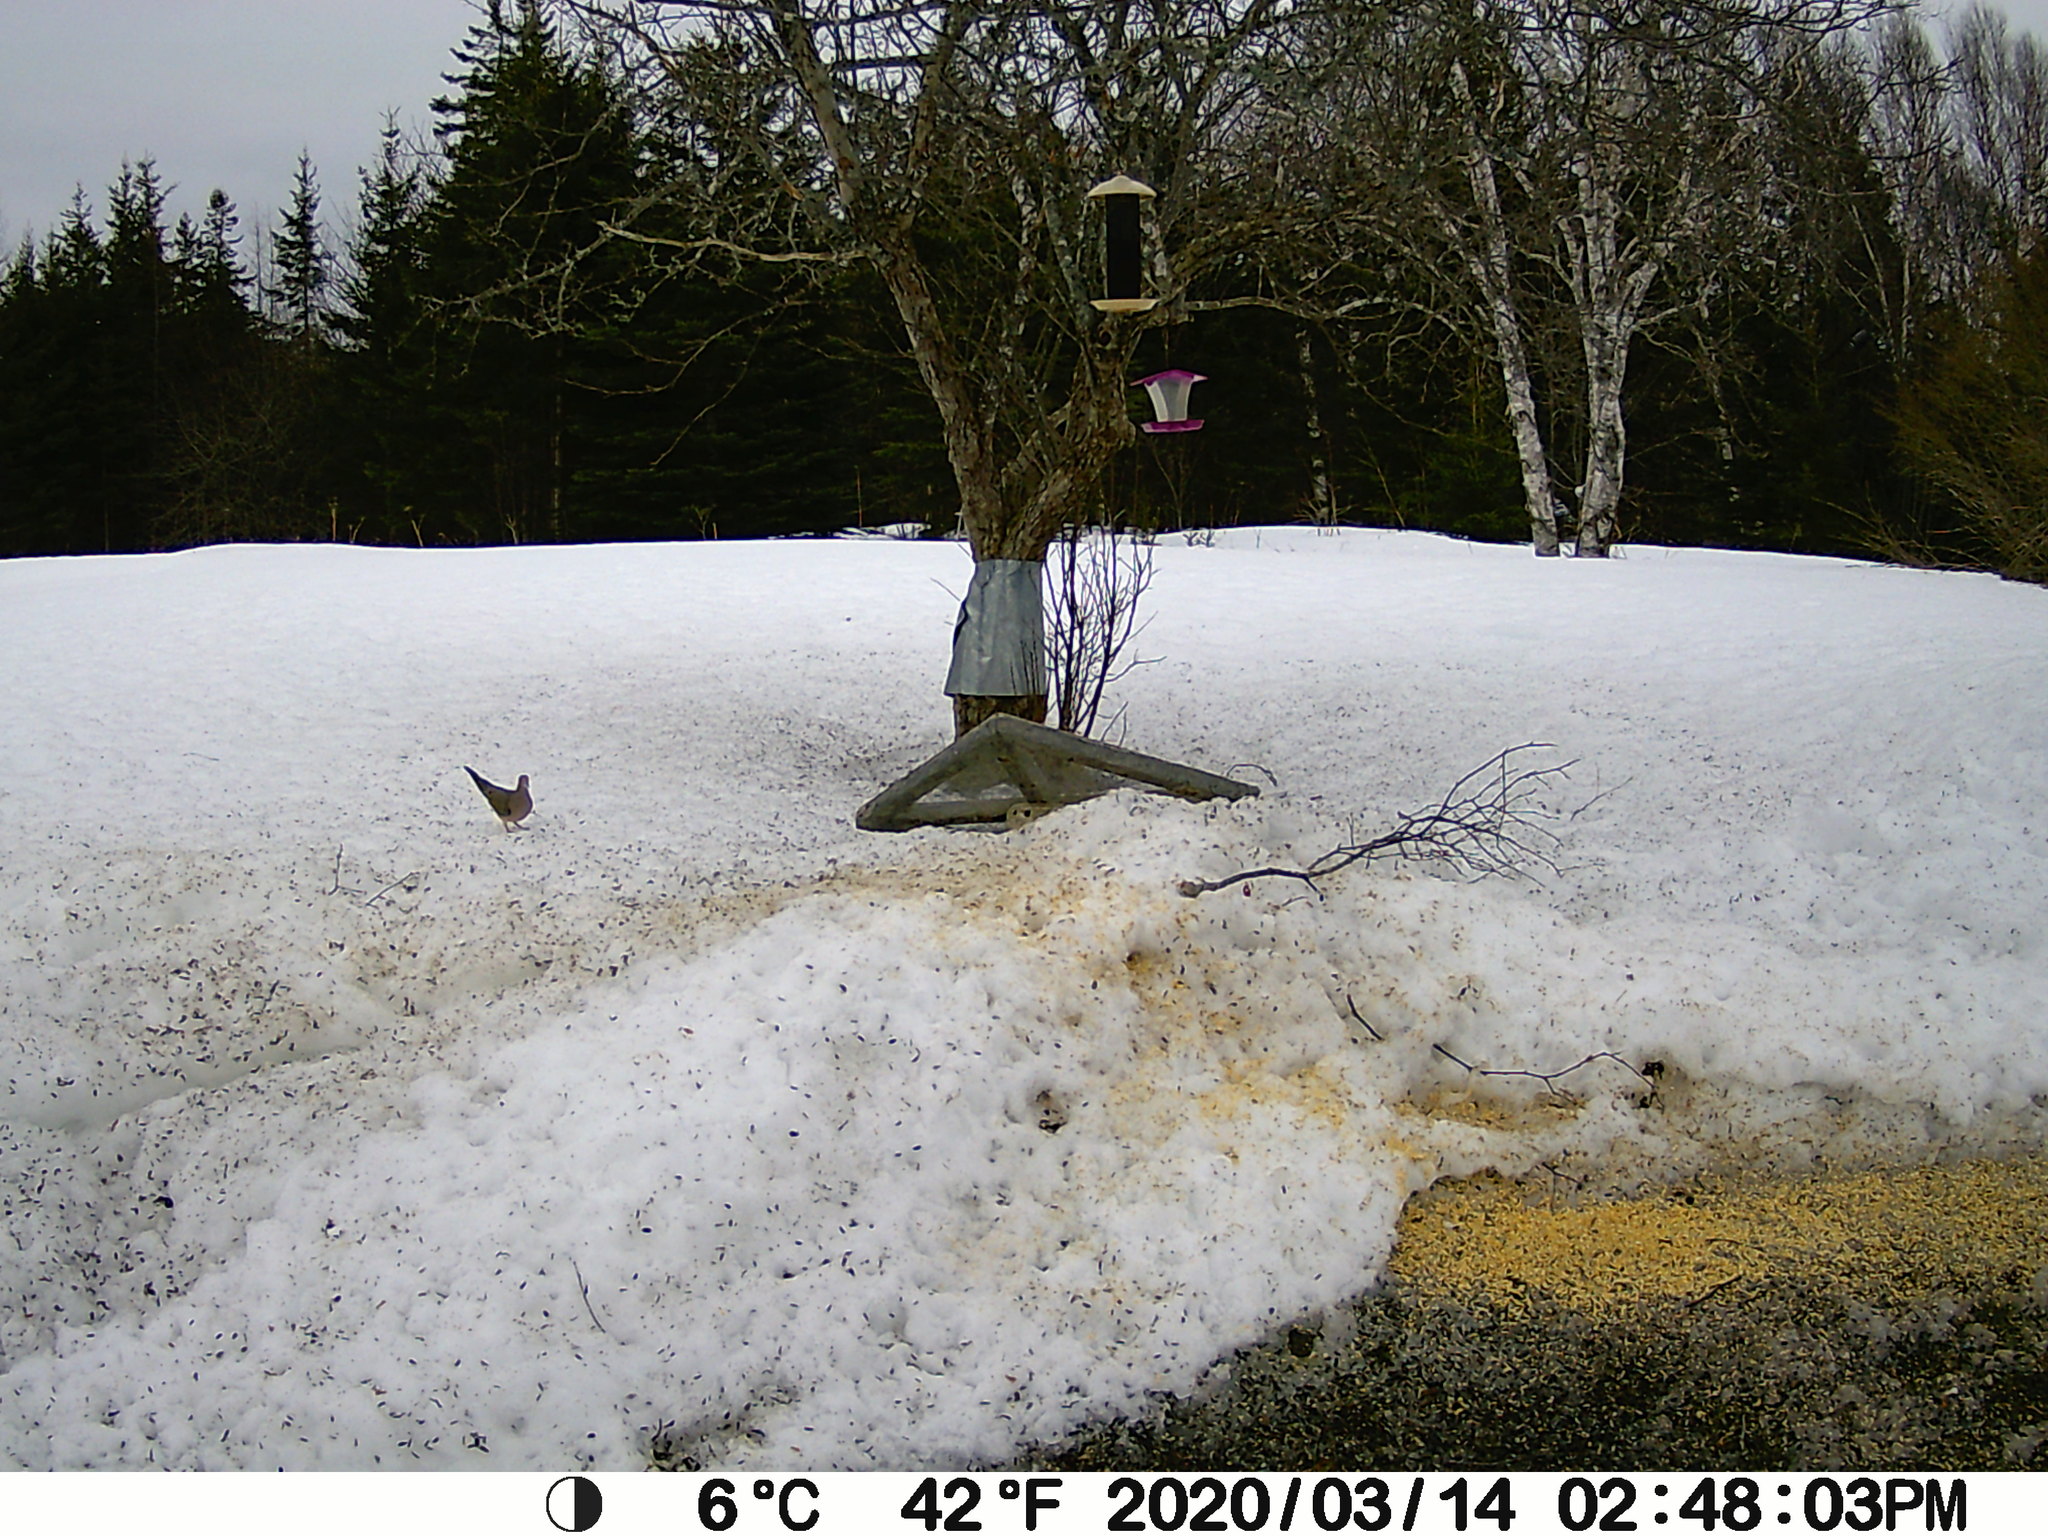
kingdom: Animalia
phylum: Chordata
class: Aves
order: Columbiformes
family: Columbidae
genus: Zenaida
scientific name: Zenaida macroura
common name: Mourning dove
